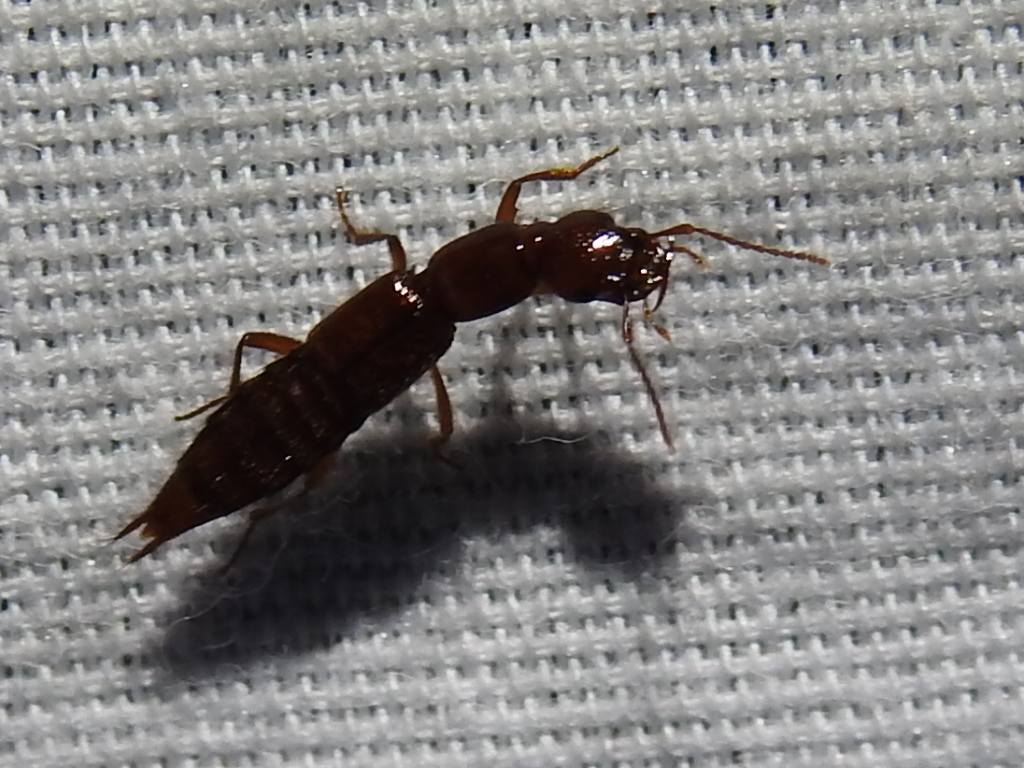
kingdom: Animalia
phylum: Arthropoda
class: Insecta
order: Coleoptera
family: Staphylinidae
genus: Biocrypta
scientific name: Biocrypta prospiciens
